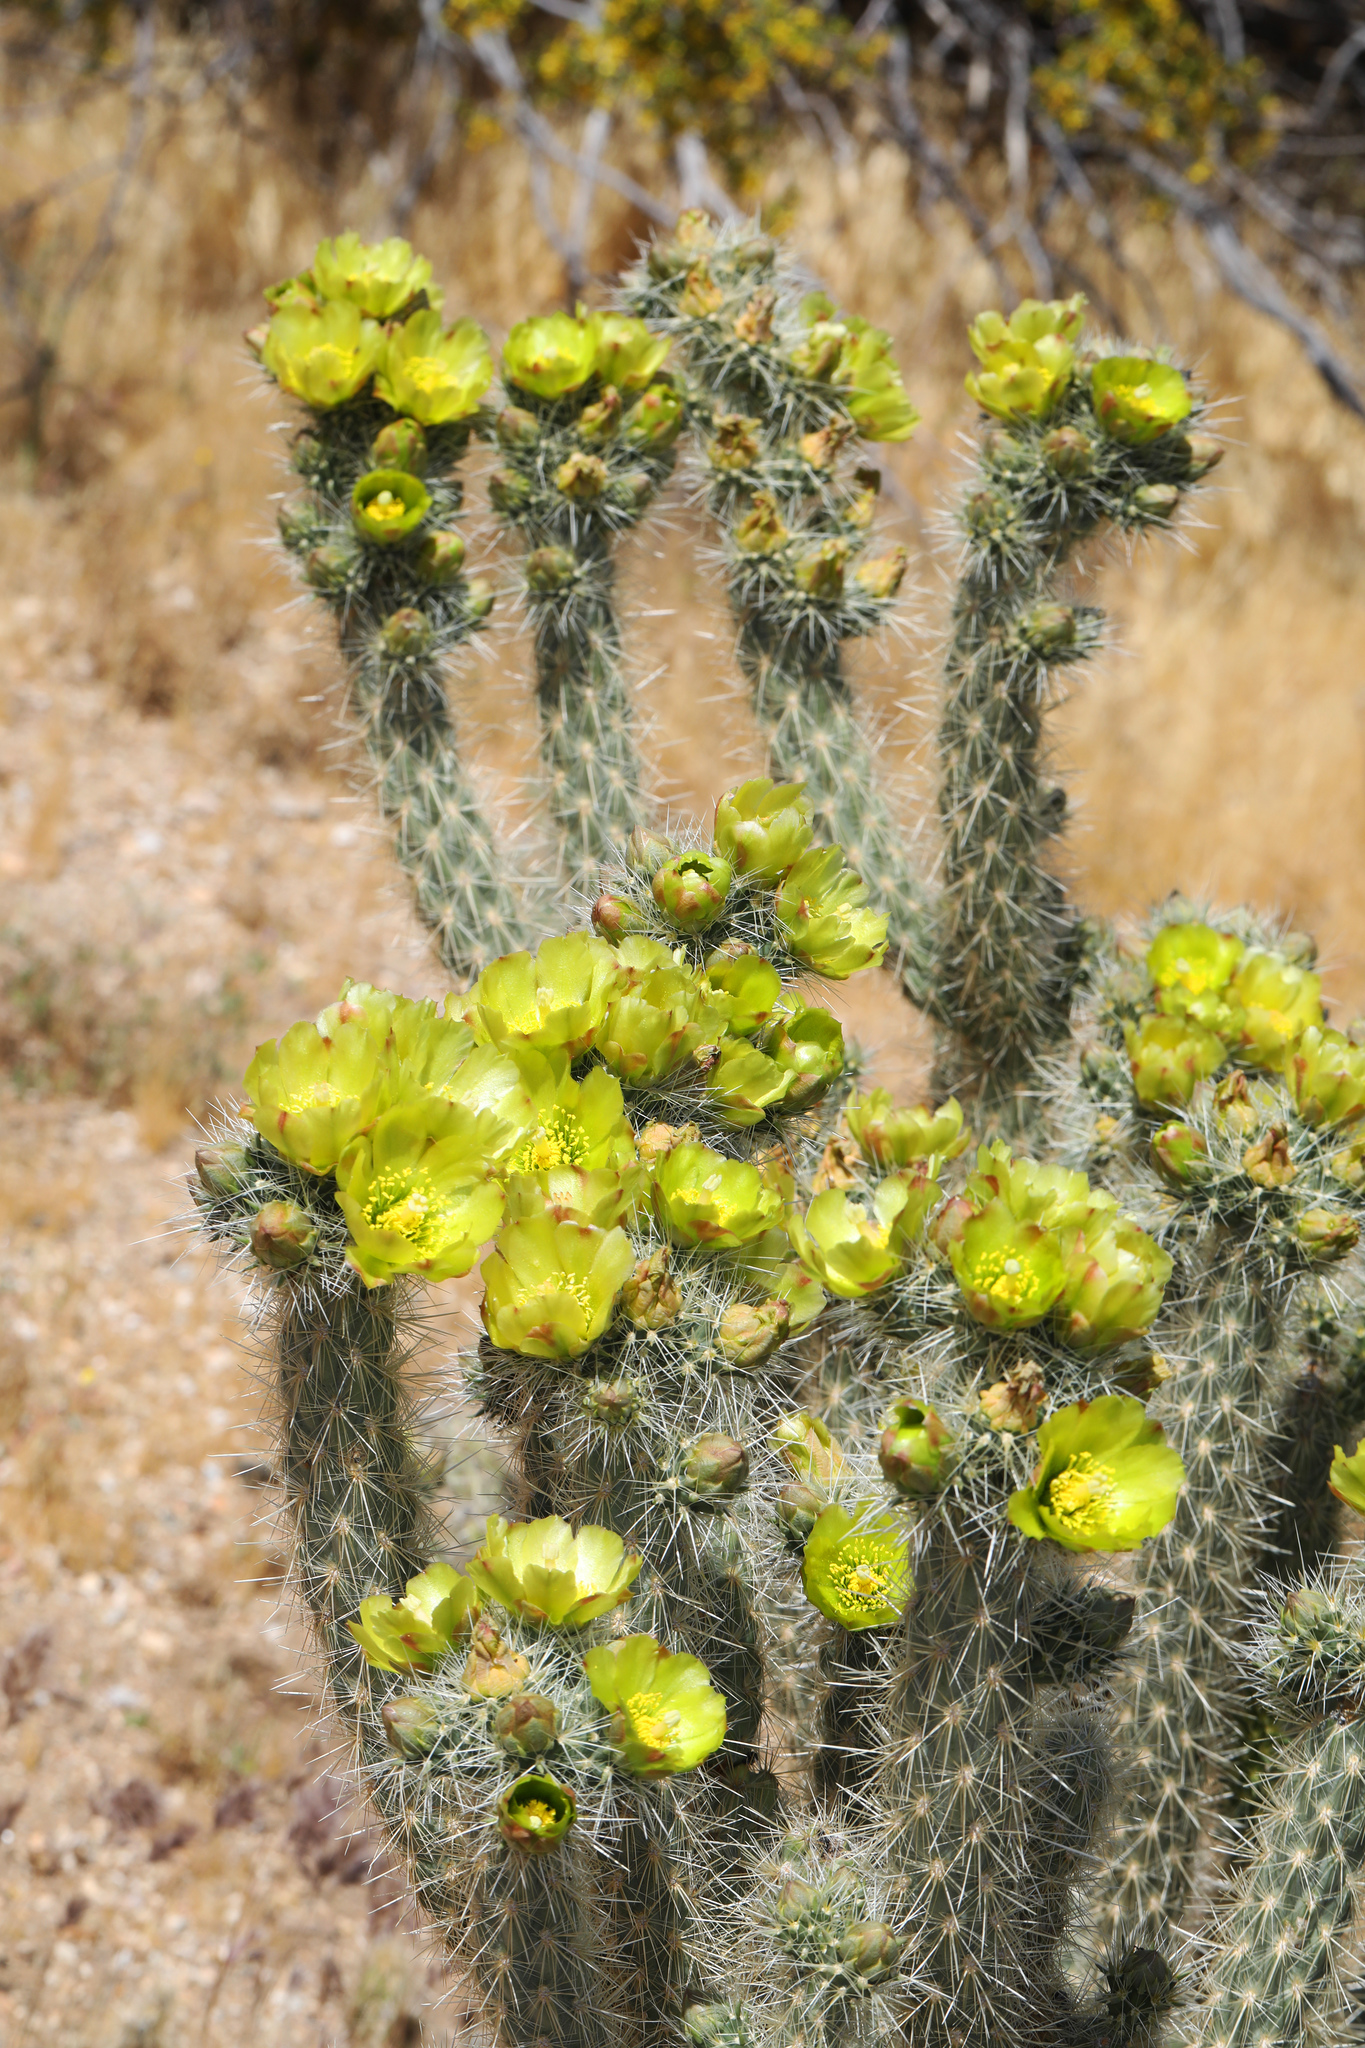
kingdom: Plantae
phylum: Tracheophyta
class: Magnoliopsida
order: Caryophyllales
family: Cactaceae
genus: Cylindropuntia
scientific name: Cylindropuntia ganderi
